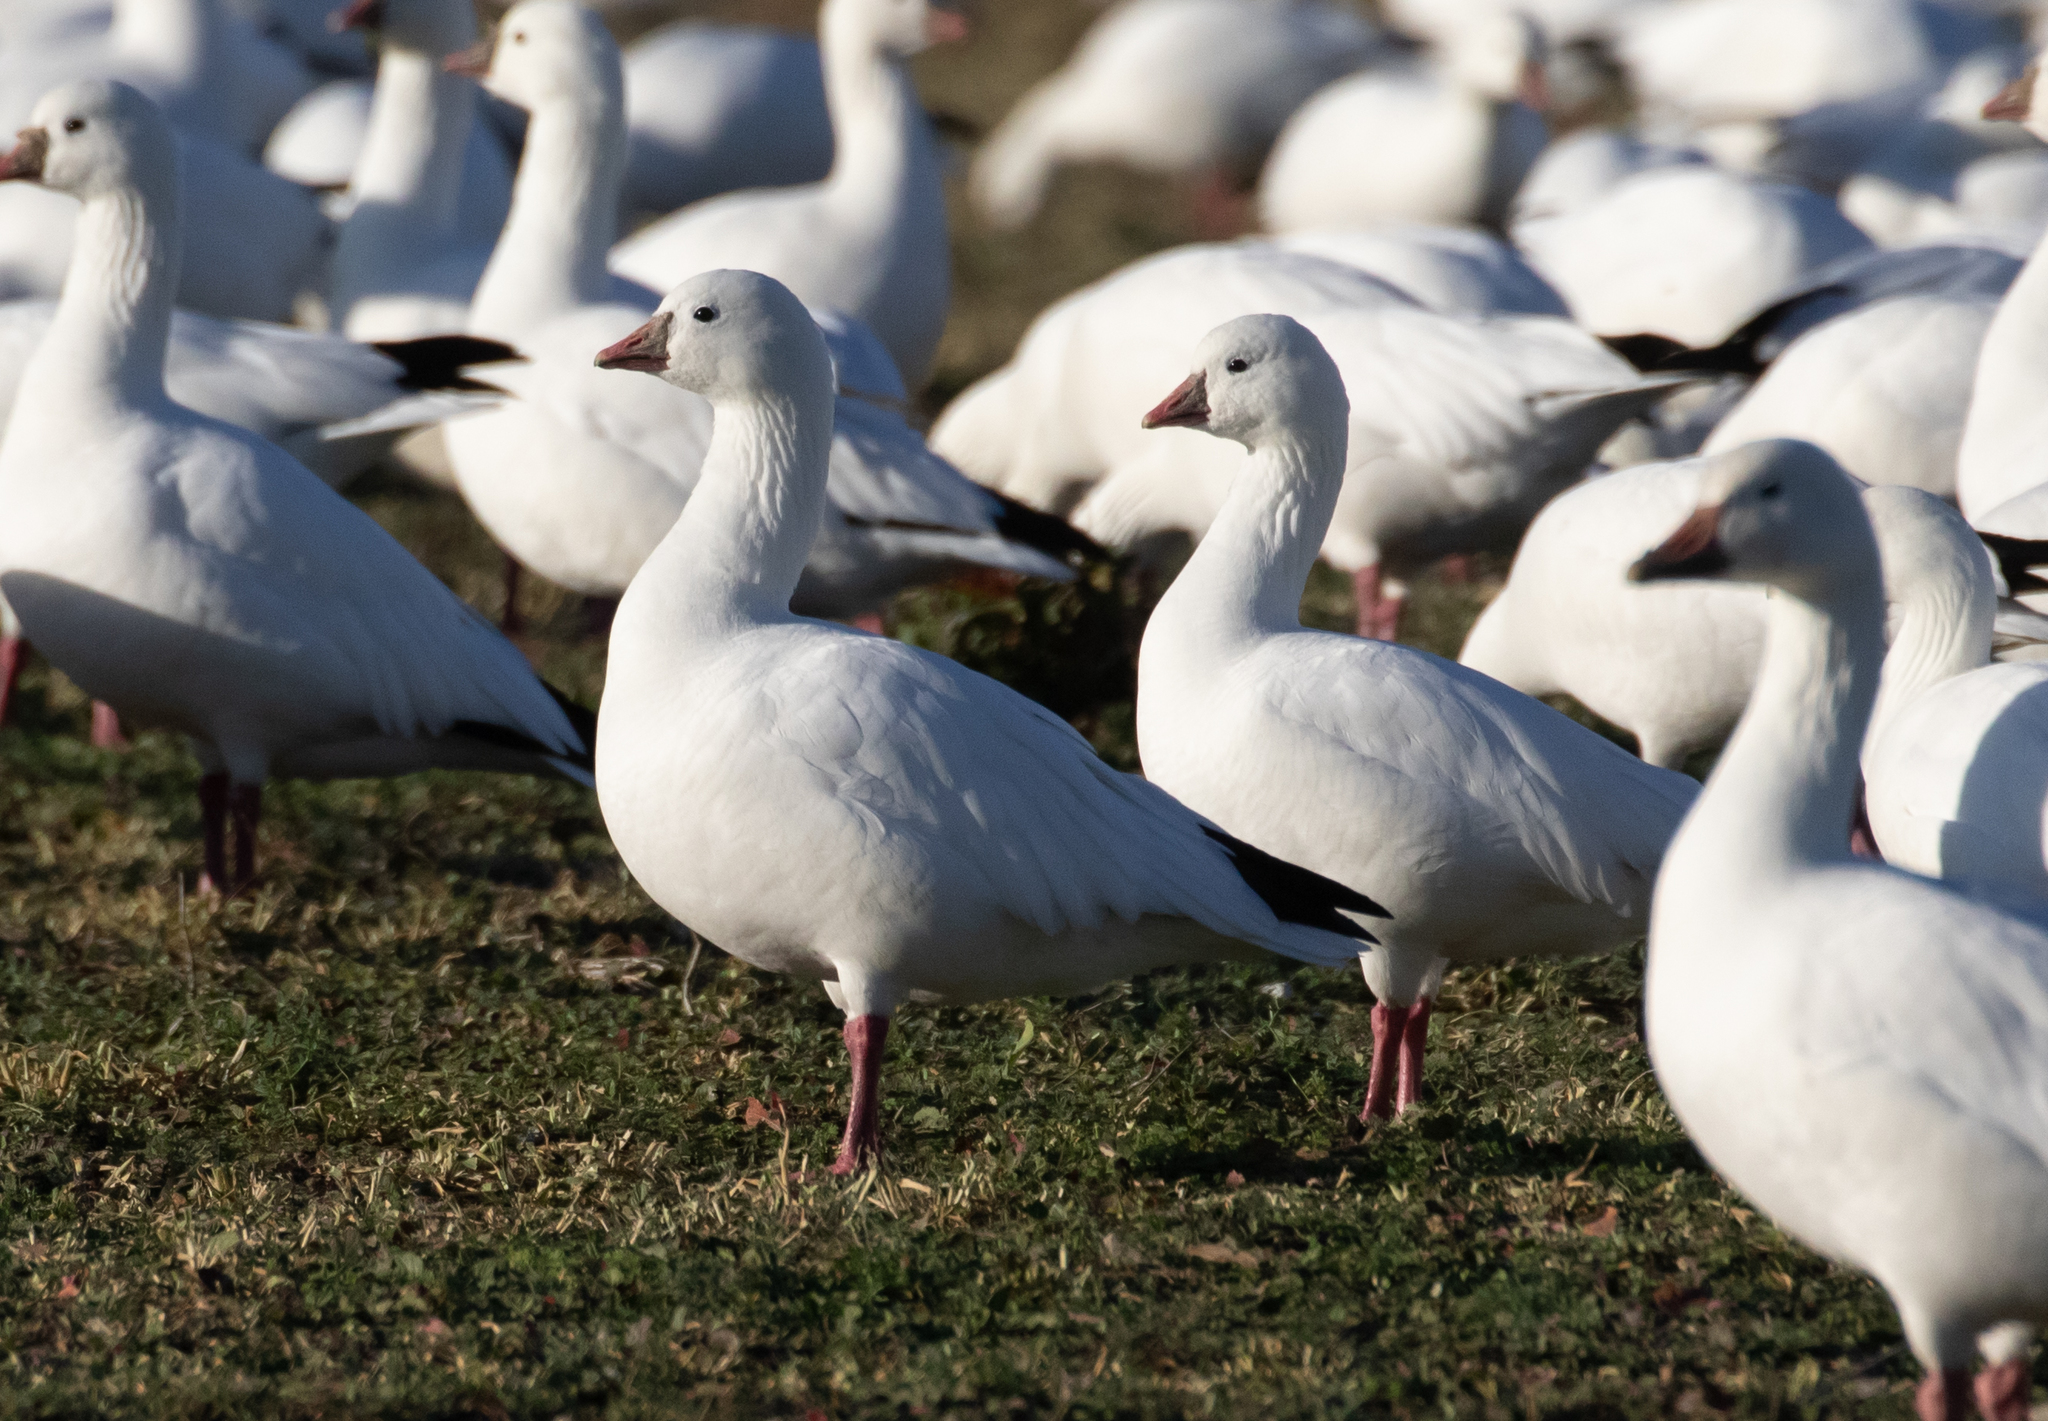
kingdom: Animalia
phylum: Chordata
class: Aves
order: Anseriformes
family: Anatidae
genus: Anser
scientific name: Anser rossii
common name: Ross's goose
